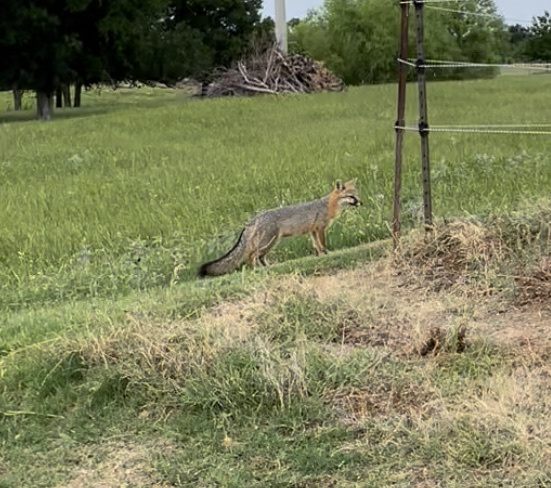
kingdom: Animalia
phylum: Chordata
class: Mammalia
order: Carnivora
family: Canidae
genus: Urocyon
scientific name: Urocyon cinereoargenteus
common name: Gray fox
